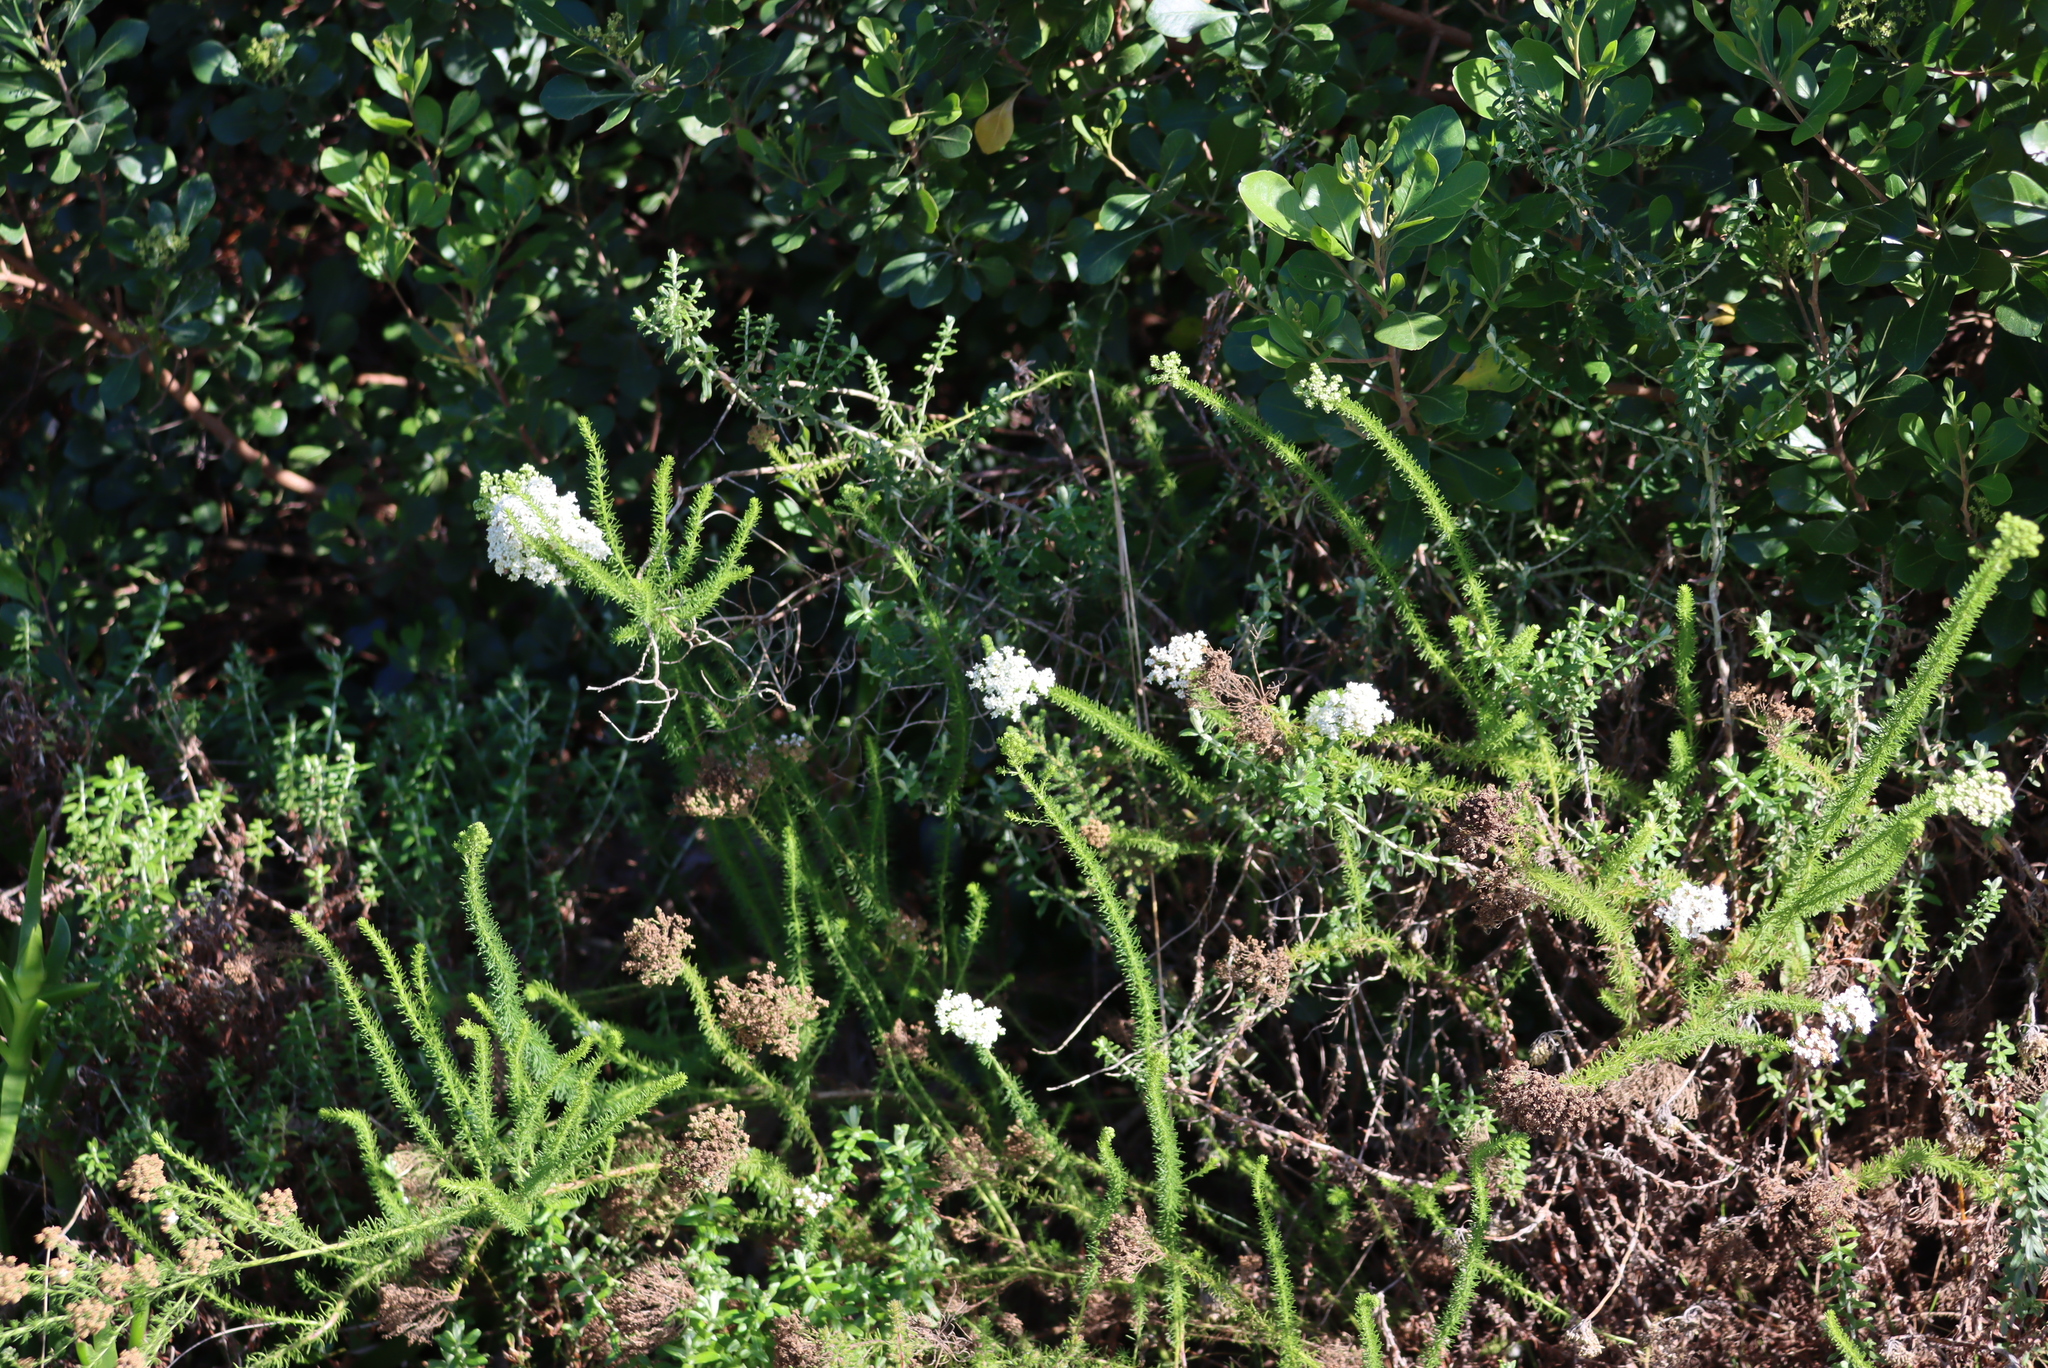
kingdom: Plantae
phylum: Tracheophyta
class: Magnoliopsida
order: Lamiales
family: Scrophulariaceae
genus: Selago
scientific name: Selago corymbosa
